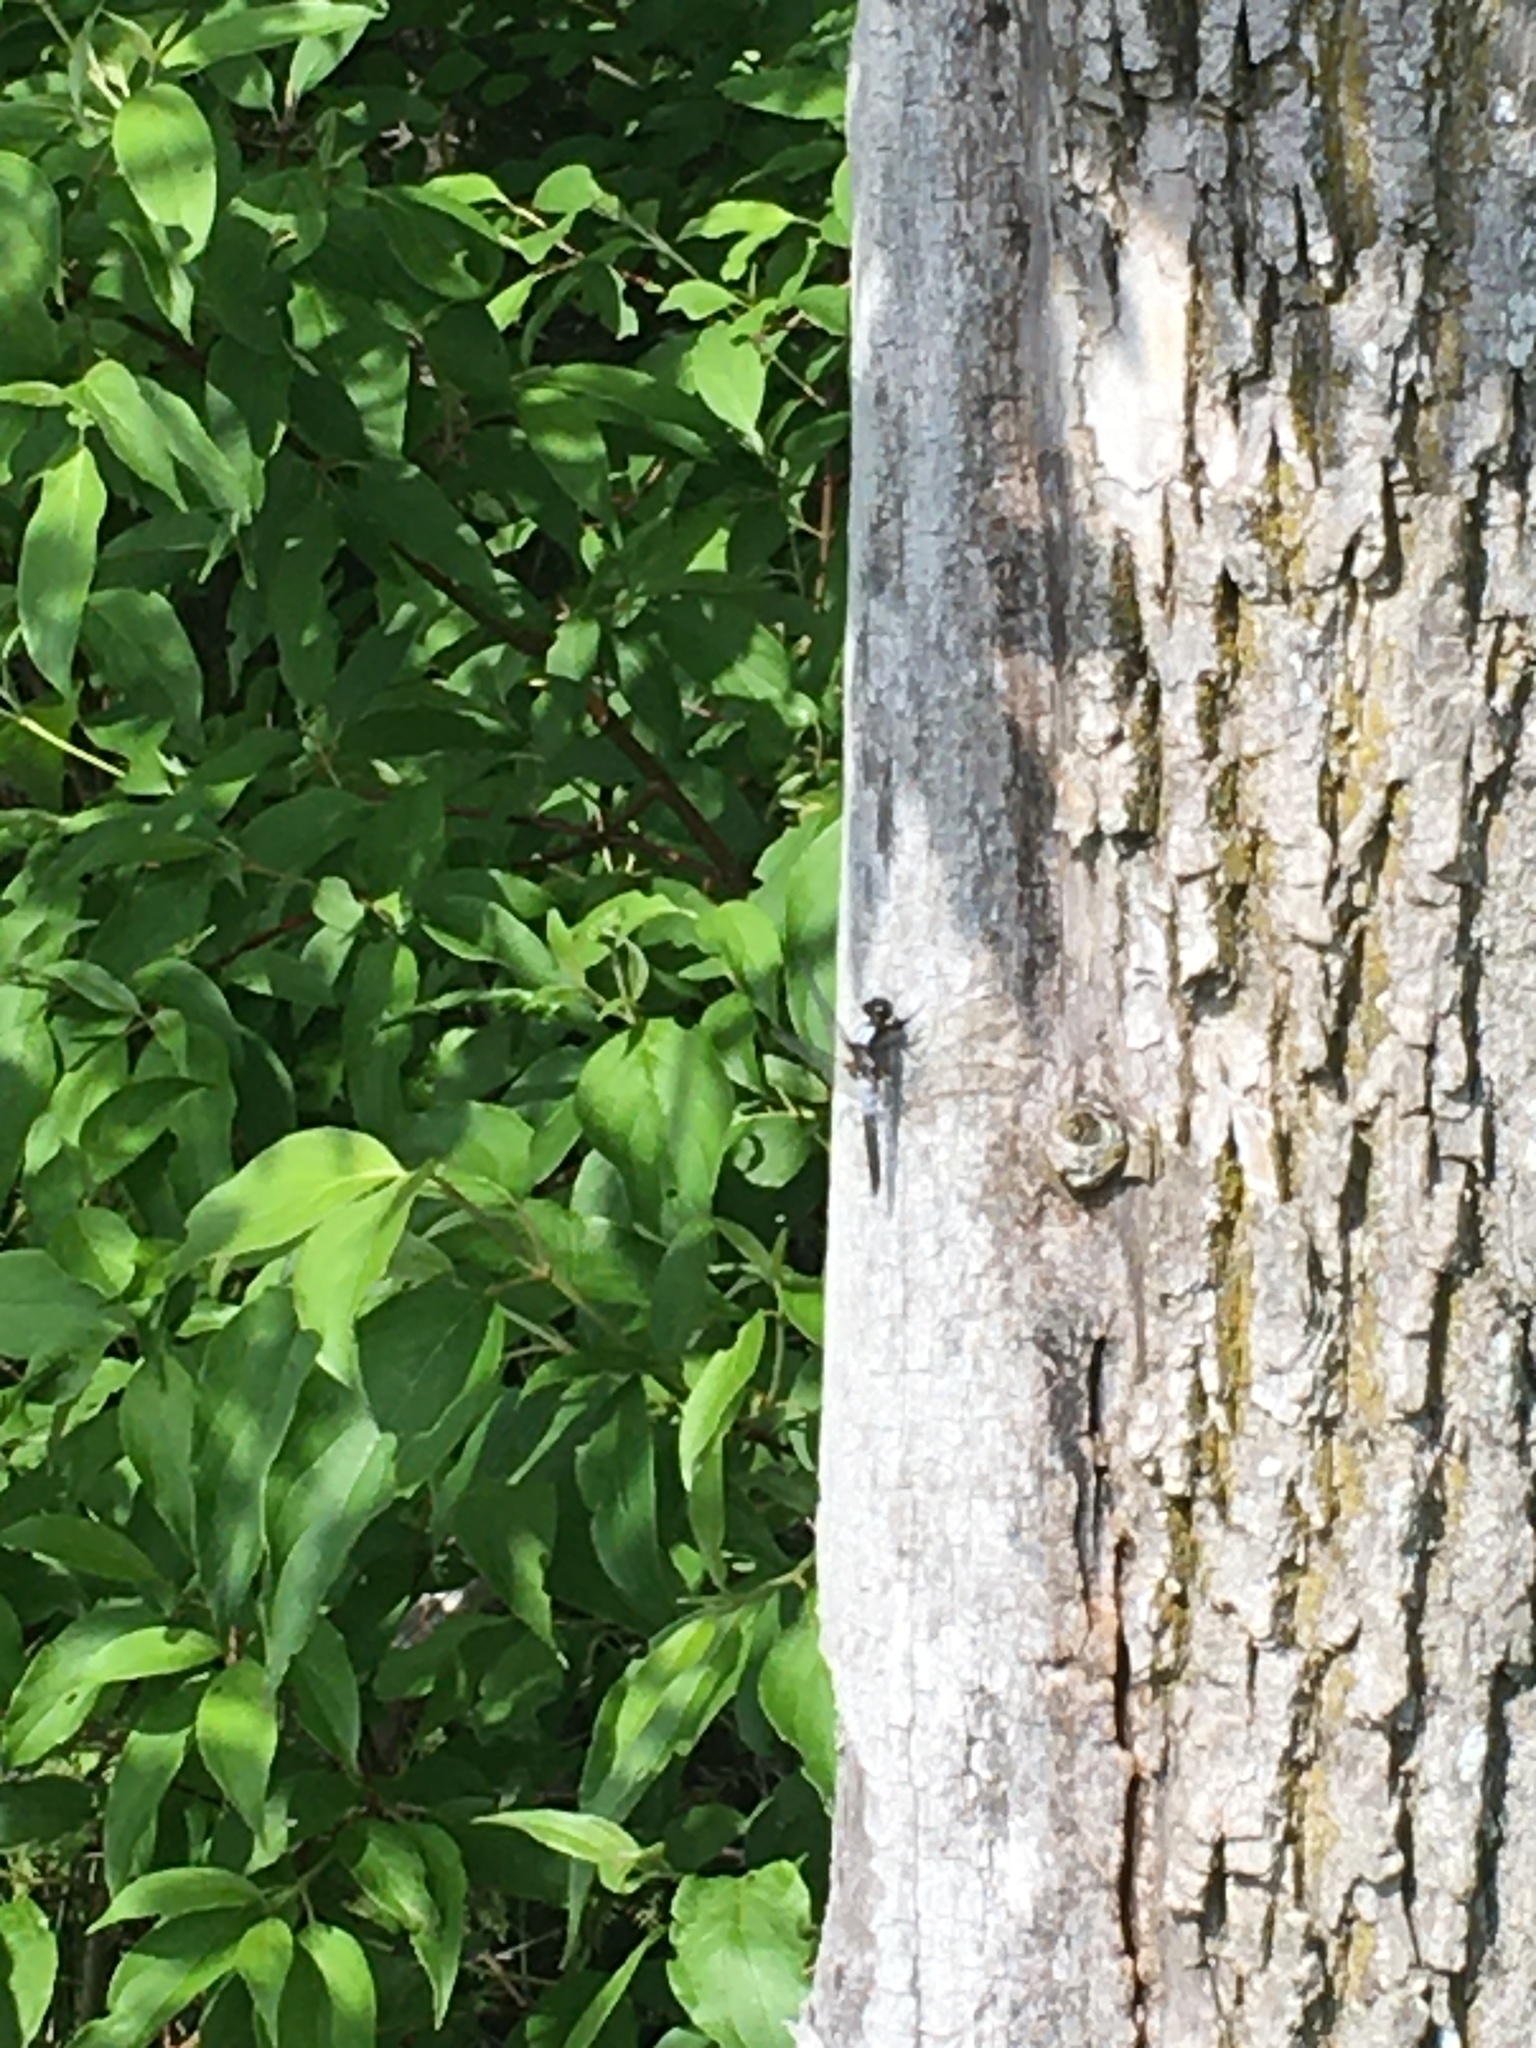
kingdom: Animalia
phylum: Arthropoda
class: Insecta
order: Odonata
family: Libellulidae
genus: Ladona
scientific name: Ladona julia
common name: Chalk-fronted corporal
